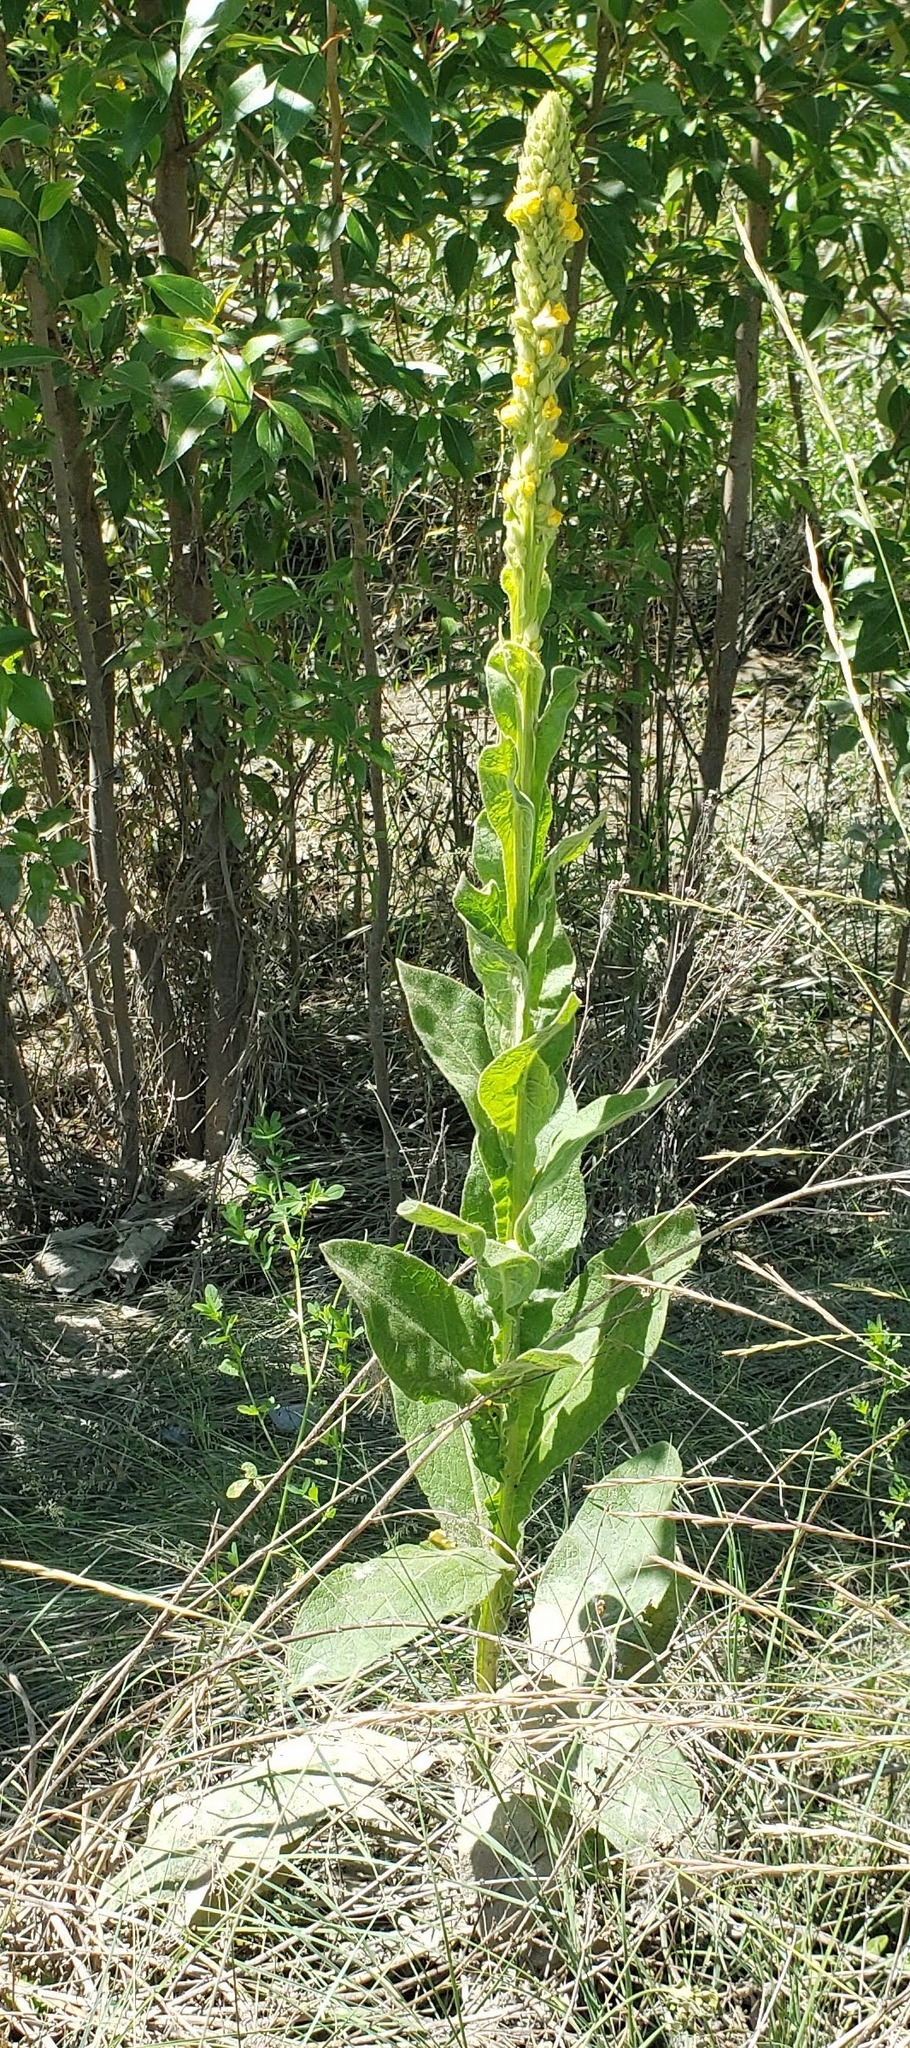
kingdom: Plantae
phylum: Tracheophyta
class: Magnoliopsida
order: Lamiales
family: Scrophulariaceae
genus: Verbascum
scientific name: Verbascum thapsus
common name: Common mullein
